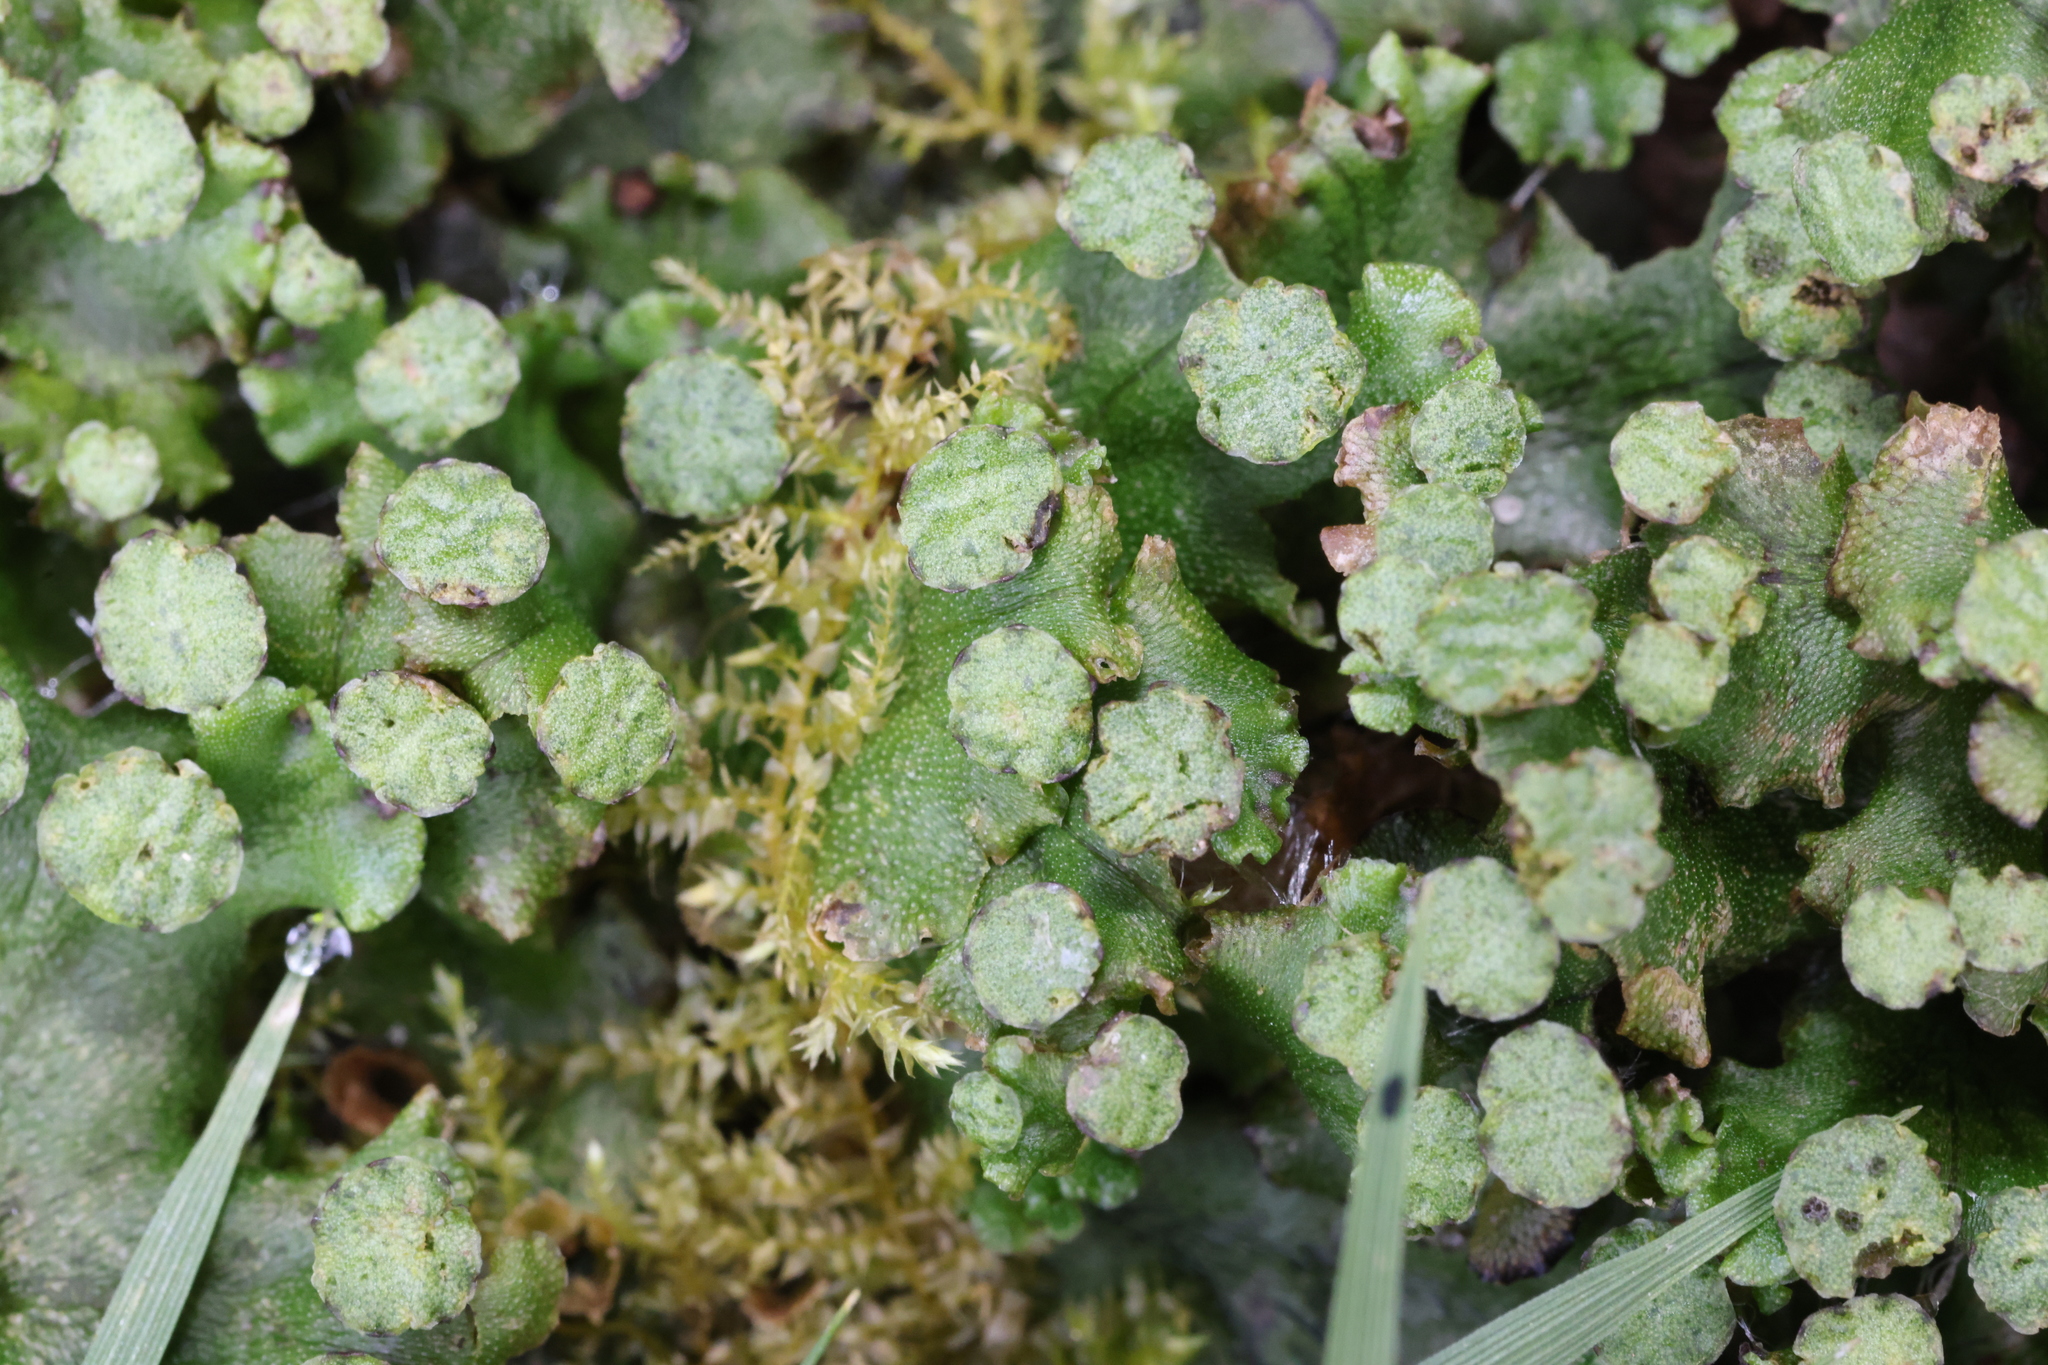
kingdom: Plantae
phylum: Marchantiophyta
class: Marchantiopsida
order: Marchantiales
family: Marchantiaceae
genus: Marchantia
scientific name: Marchantia polymorpha
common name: Common liverwort
